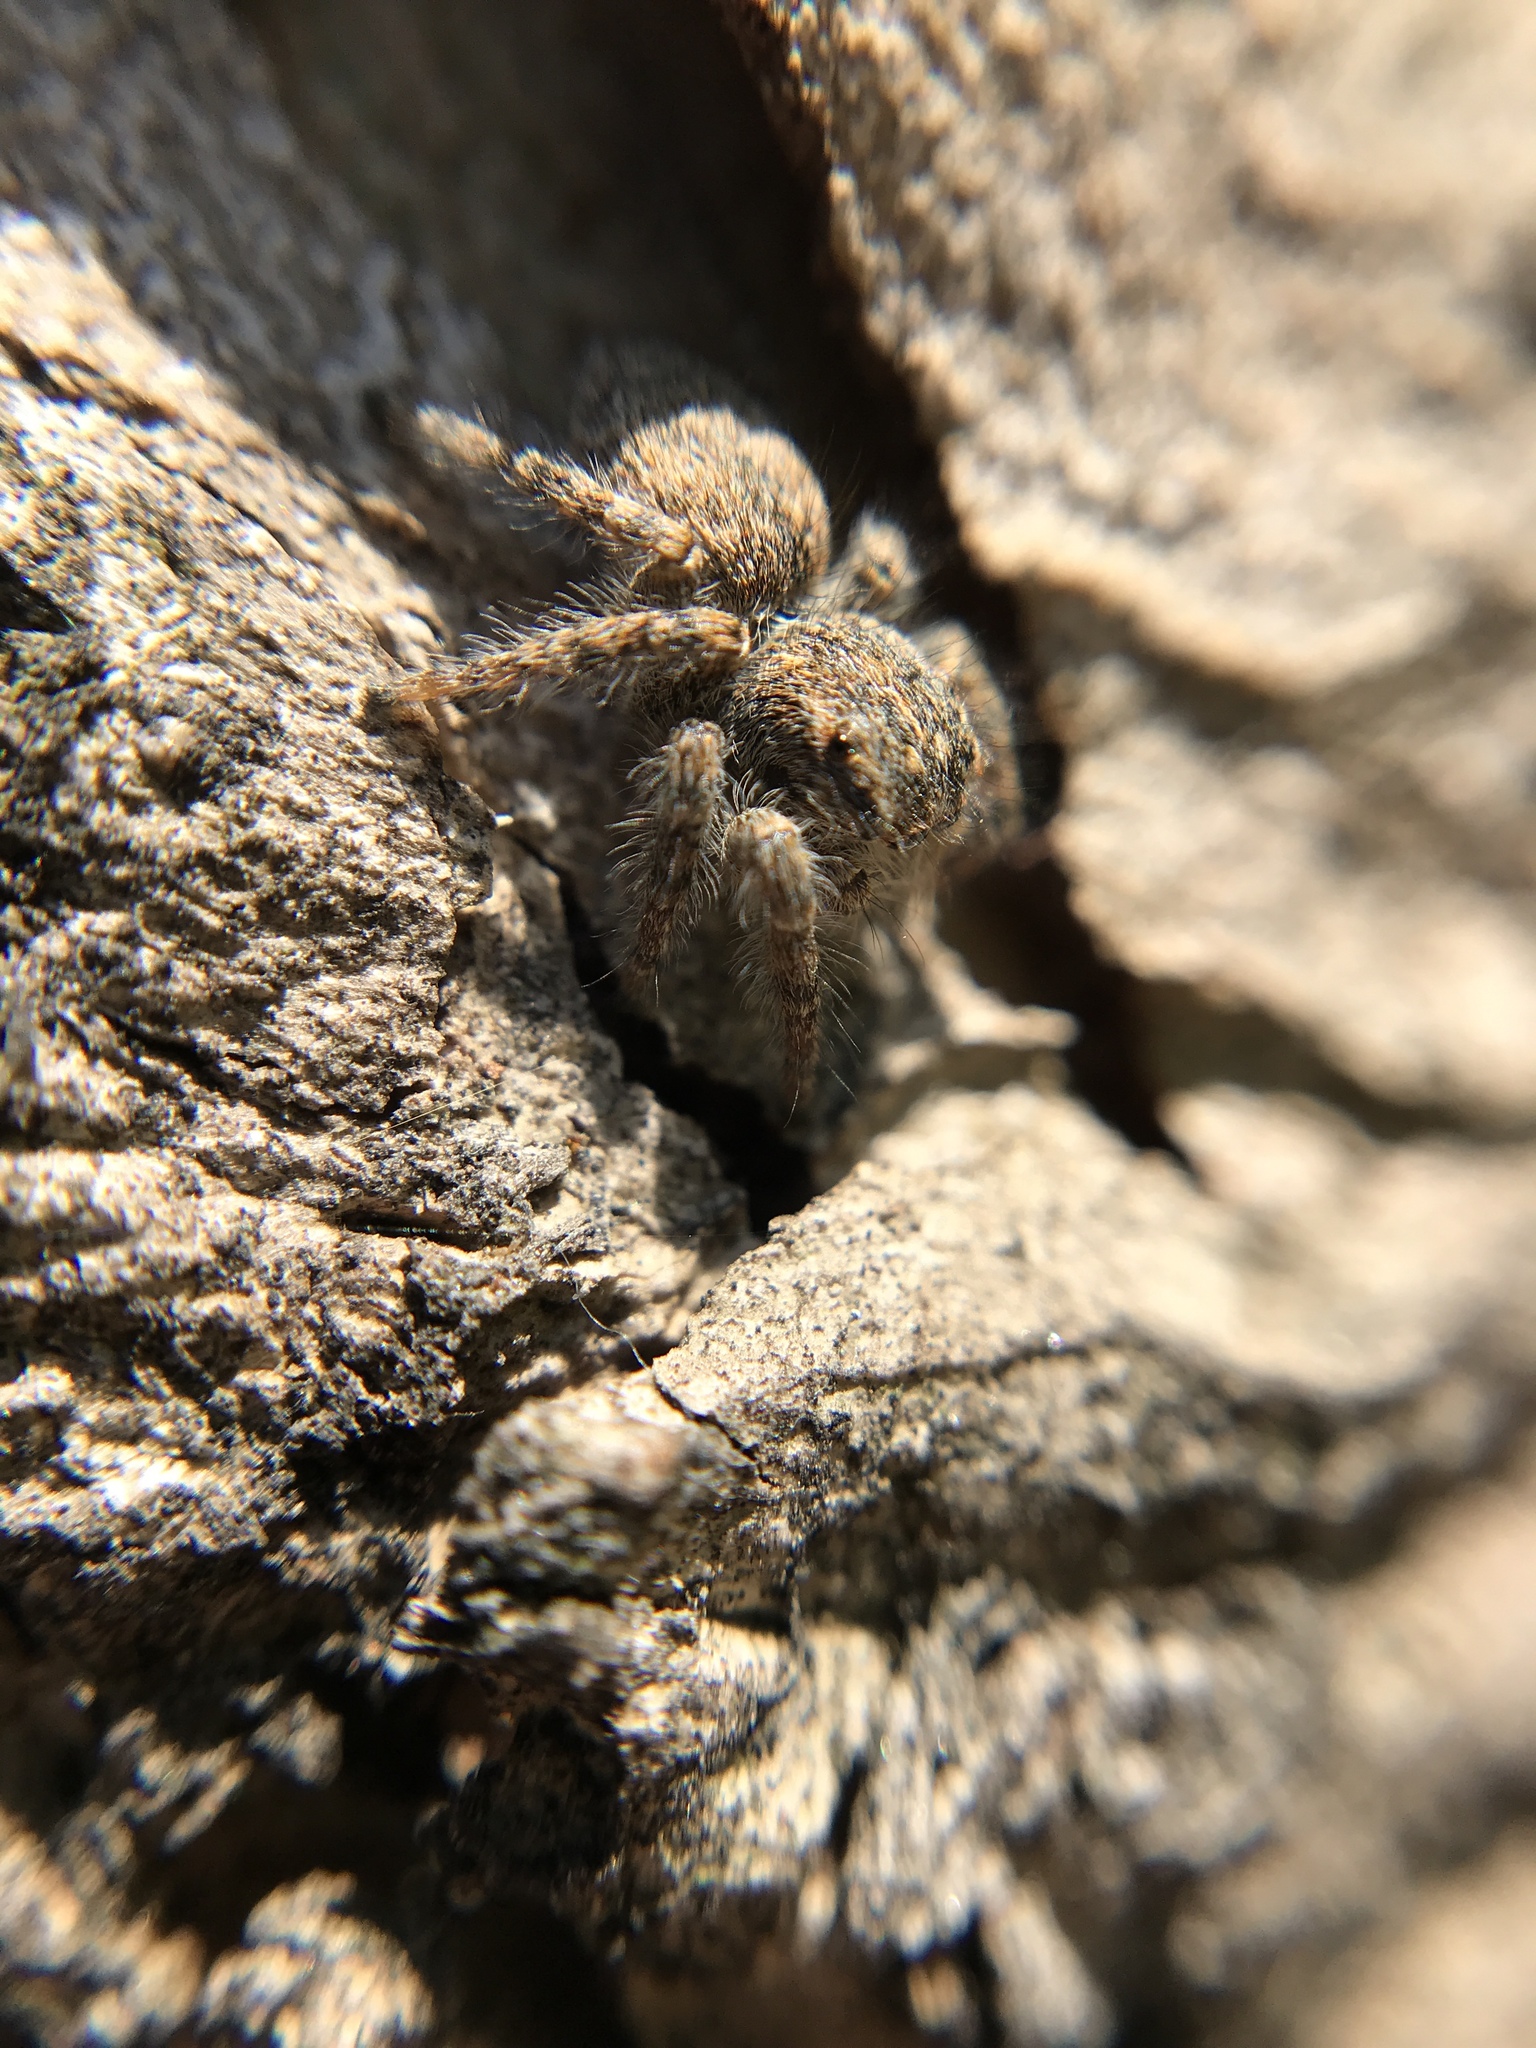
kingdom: Animalia
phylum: Arthropoda
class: Arachnida
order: Araneae
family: Salticidae
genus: Philaeus
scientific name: Philaeus chrysops
